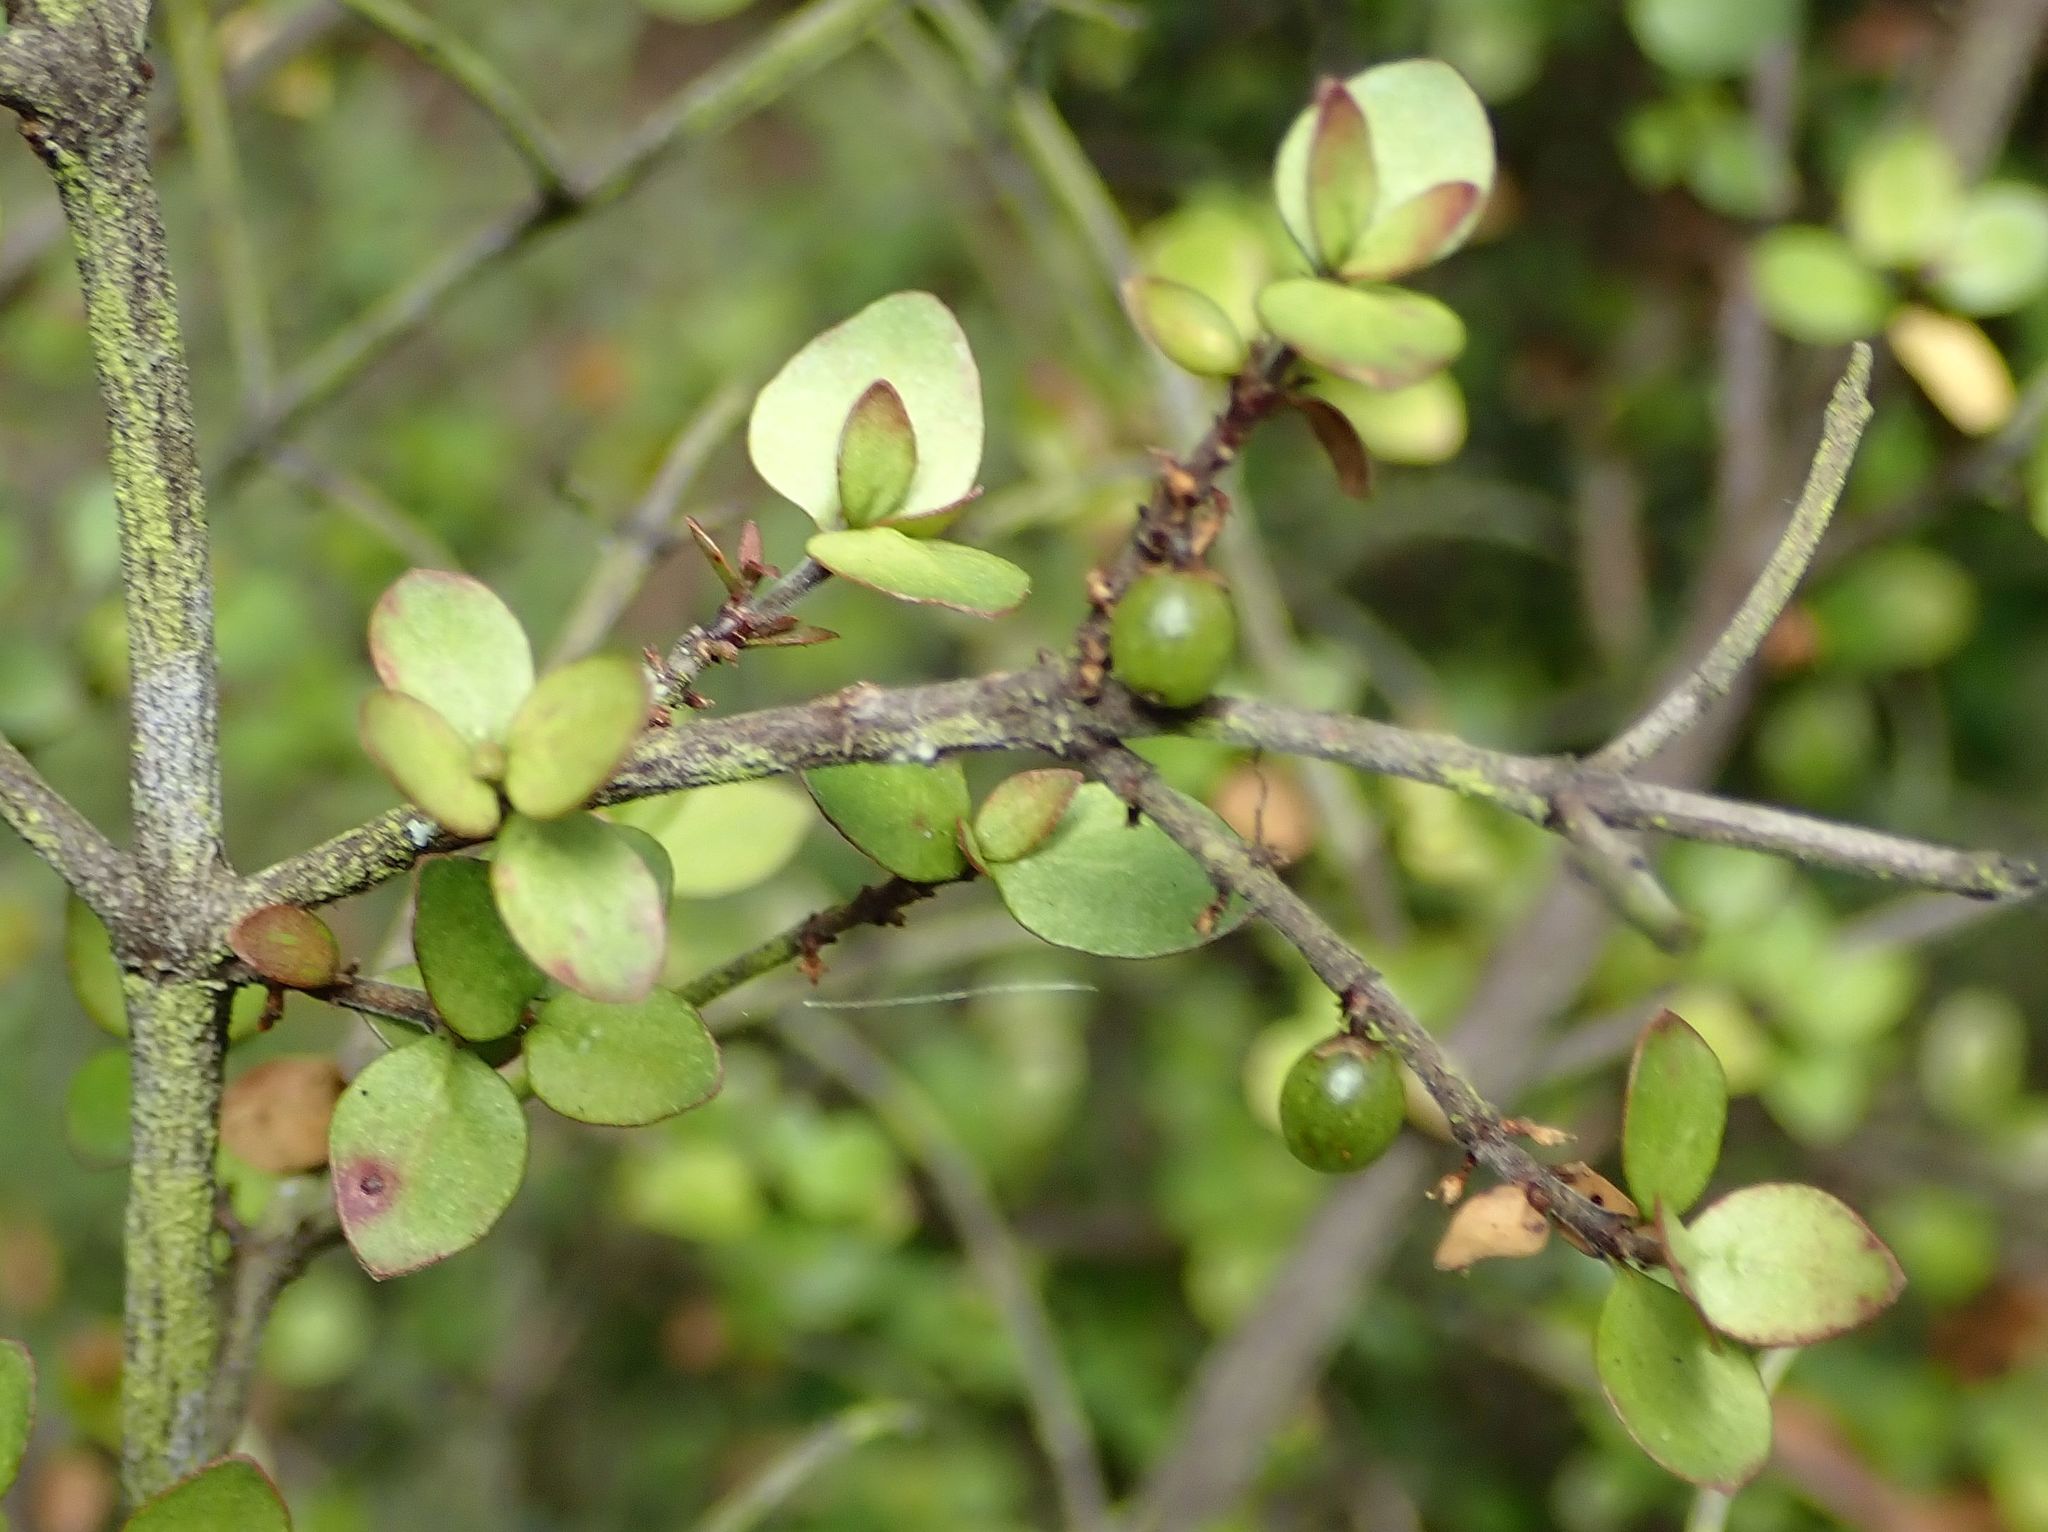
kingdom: Plantae
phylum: Tracheophyta
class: Magnoliopsida
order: Gentianales
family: Rubiaceae
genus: Coprosma
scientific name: Coprosma rhamnoides
